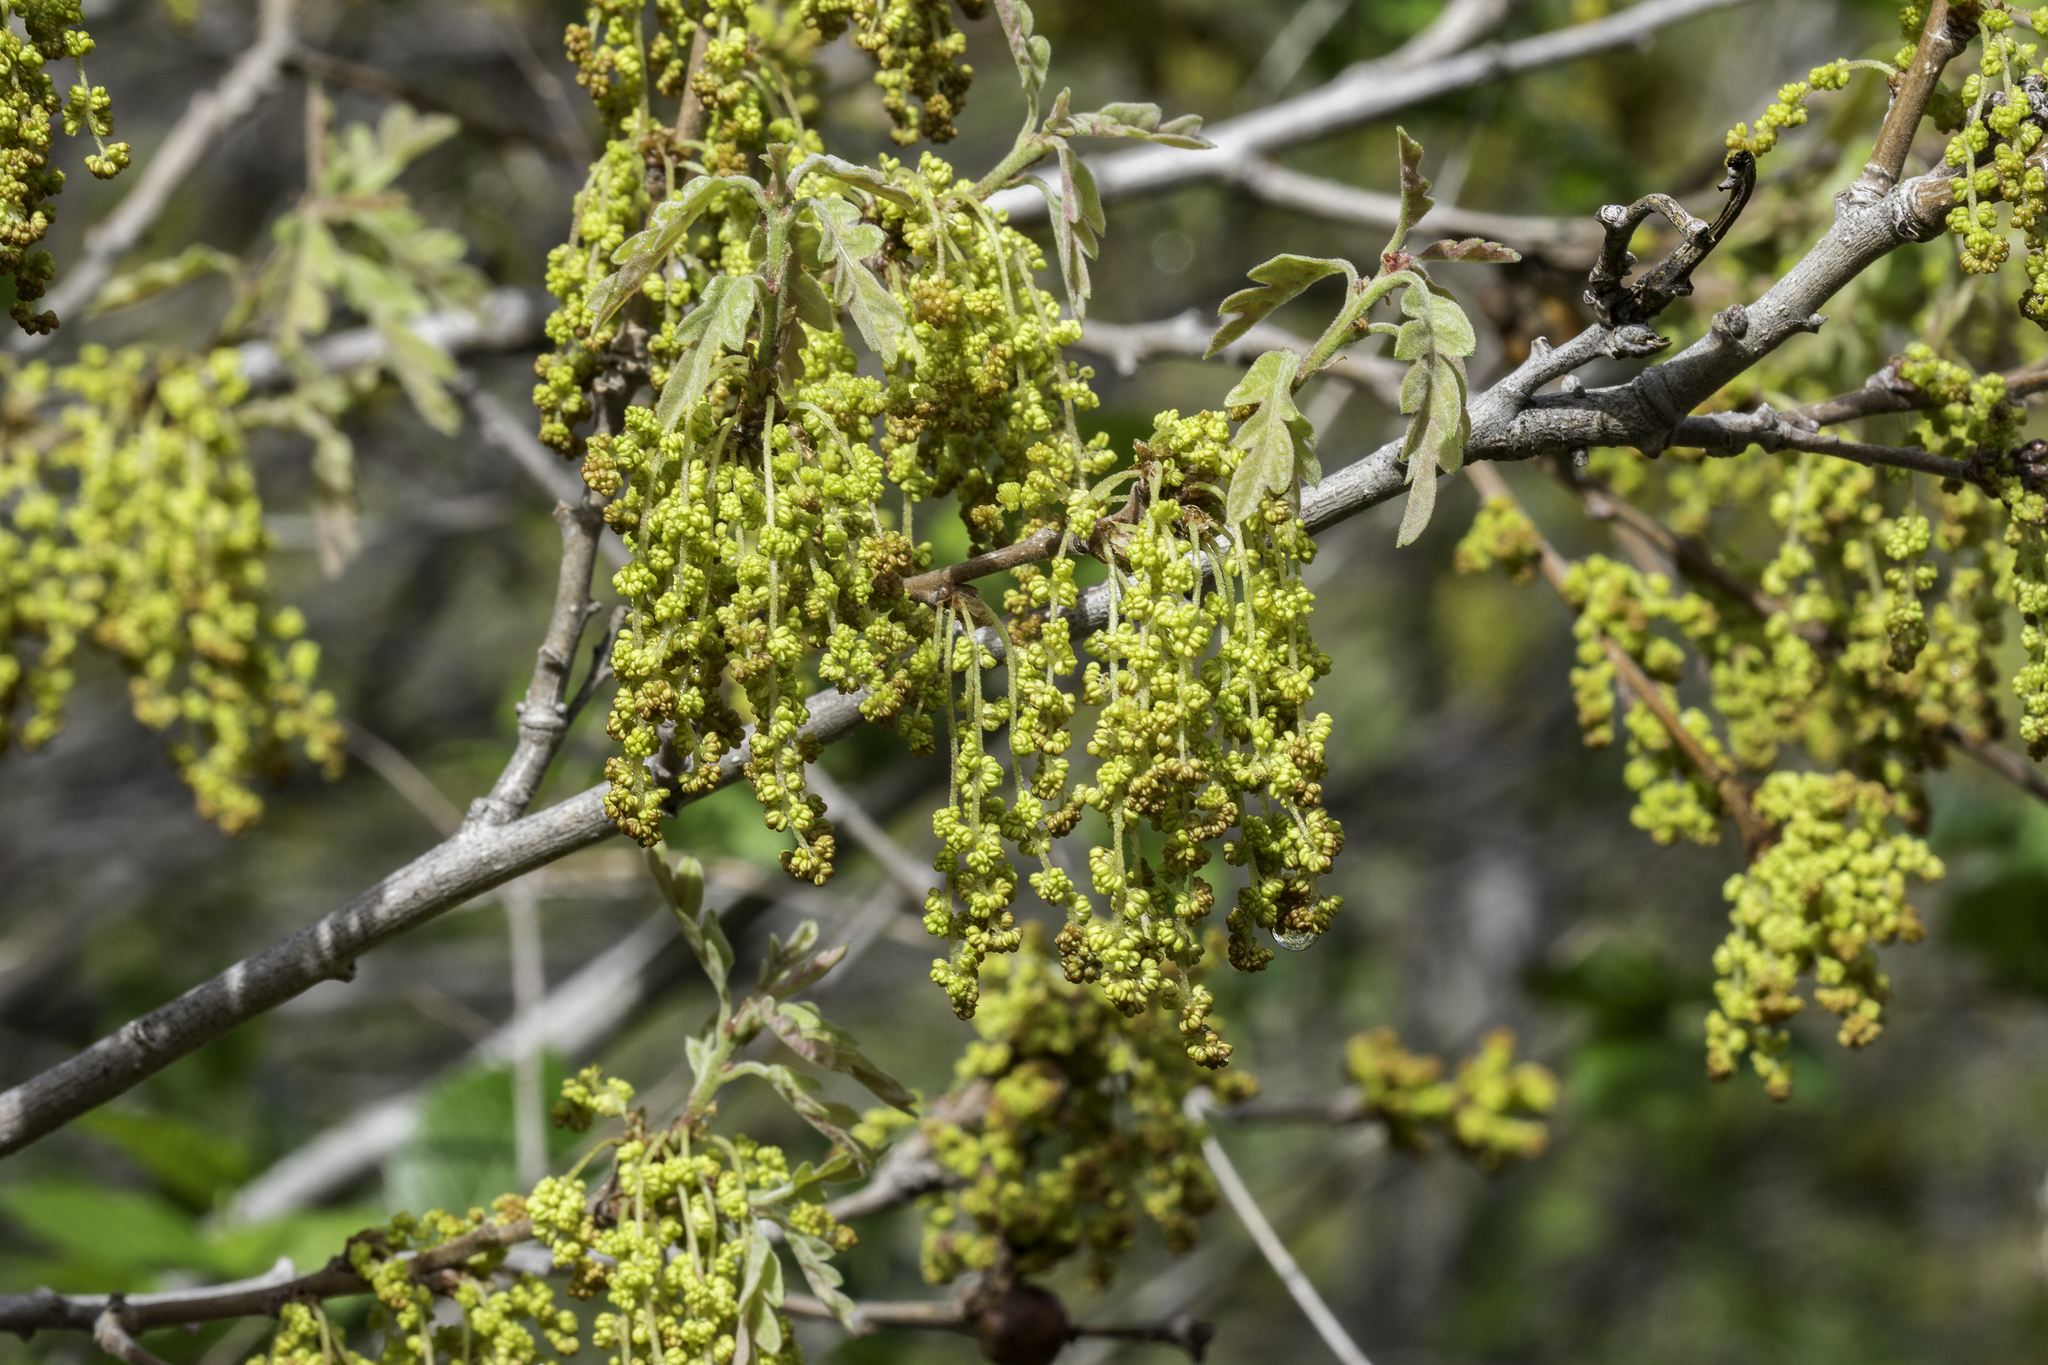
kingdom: Plantae
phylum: Tracheophyta
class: Magnoliopsida
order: Fagales
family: Fagaceae
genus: Quercus
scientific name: Quercus gambelii
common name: Gambel oak
